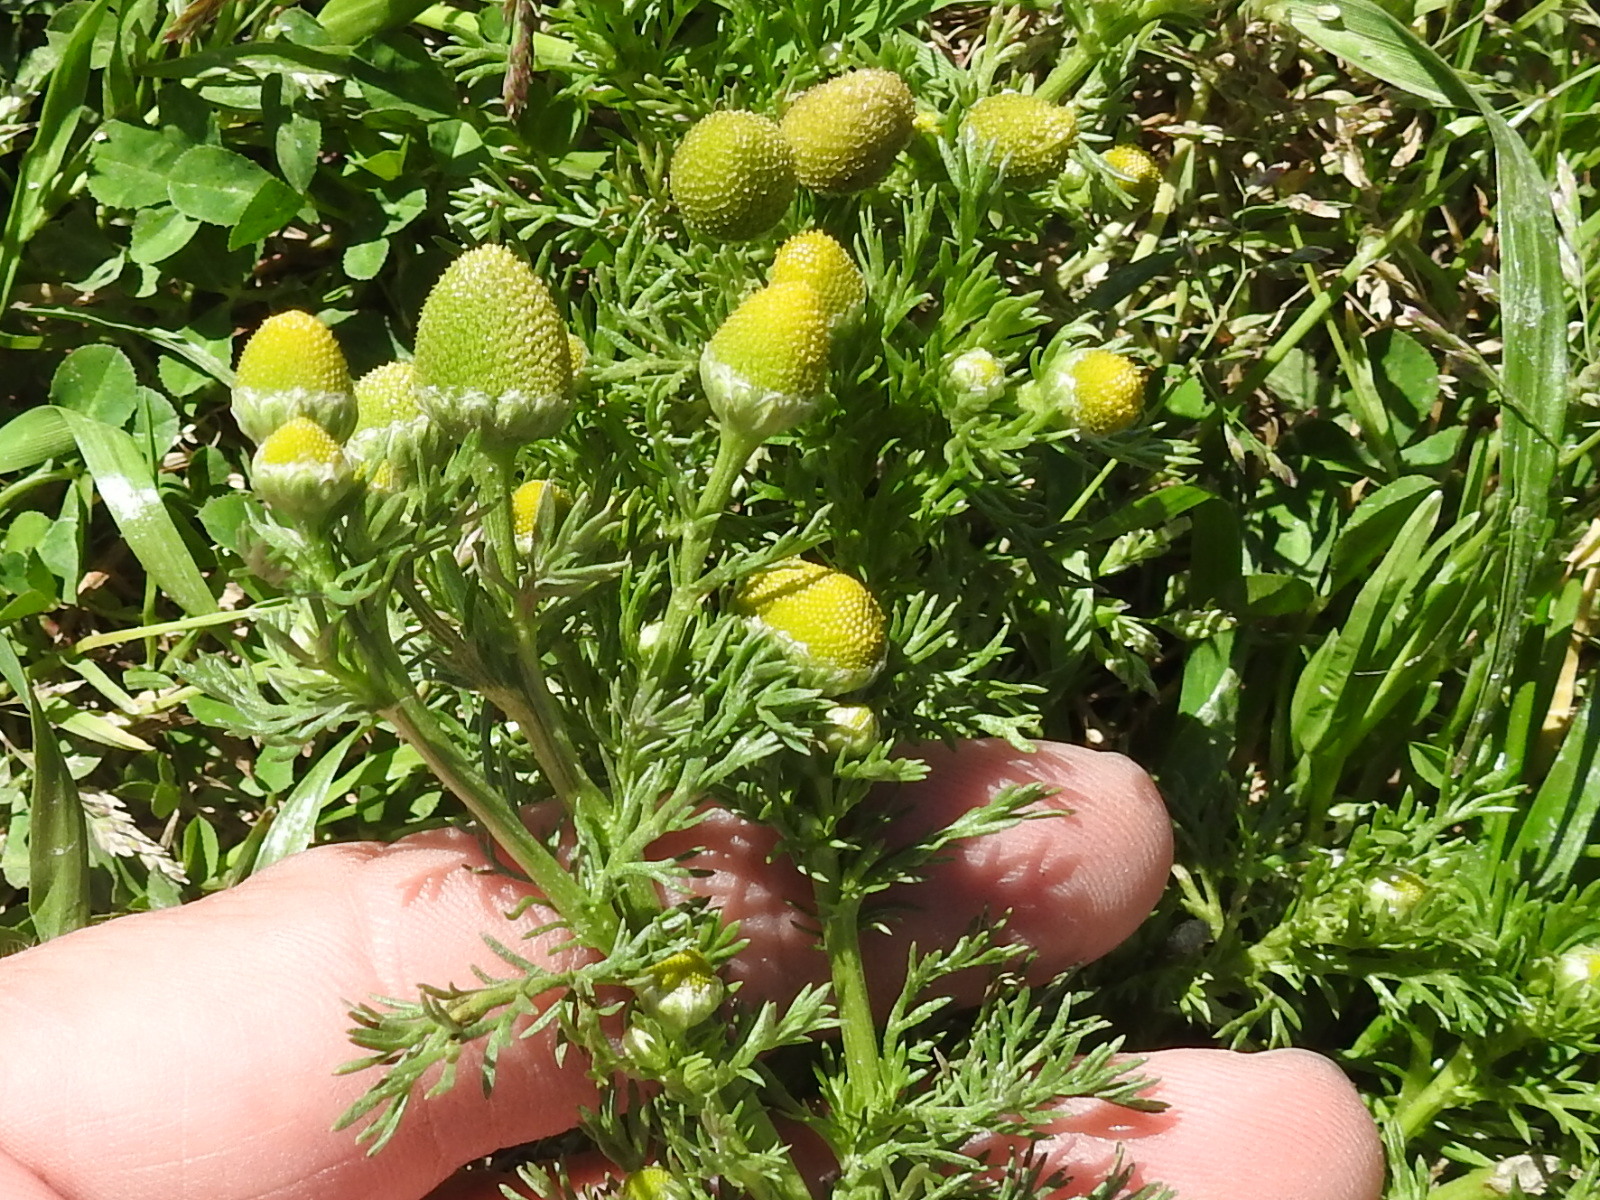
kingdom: Plantae
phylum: Tracheophyta
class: Magnoliopsida
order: Asterales
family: Asteraceae
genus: Matricaria
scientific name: Matricaria discoidea
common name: Disc mayweed
